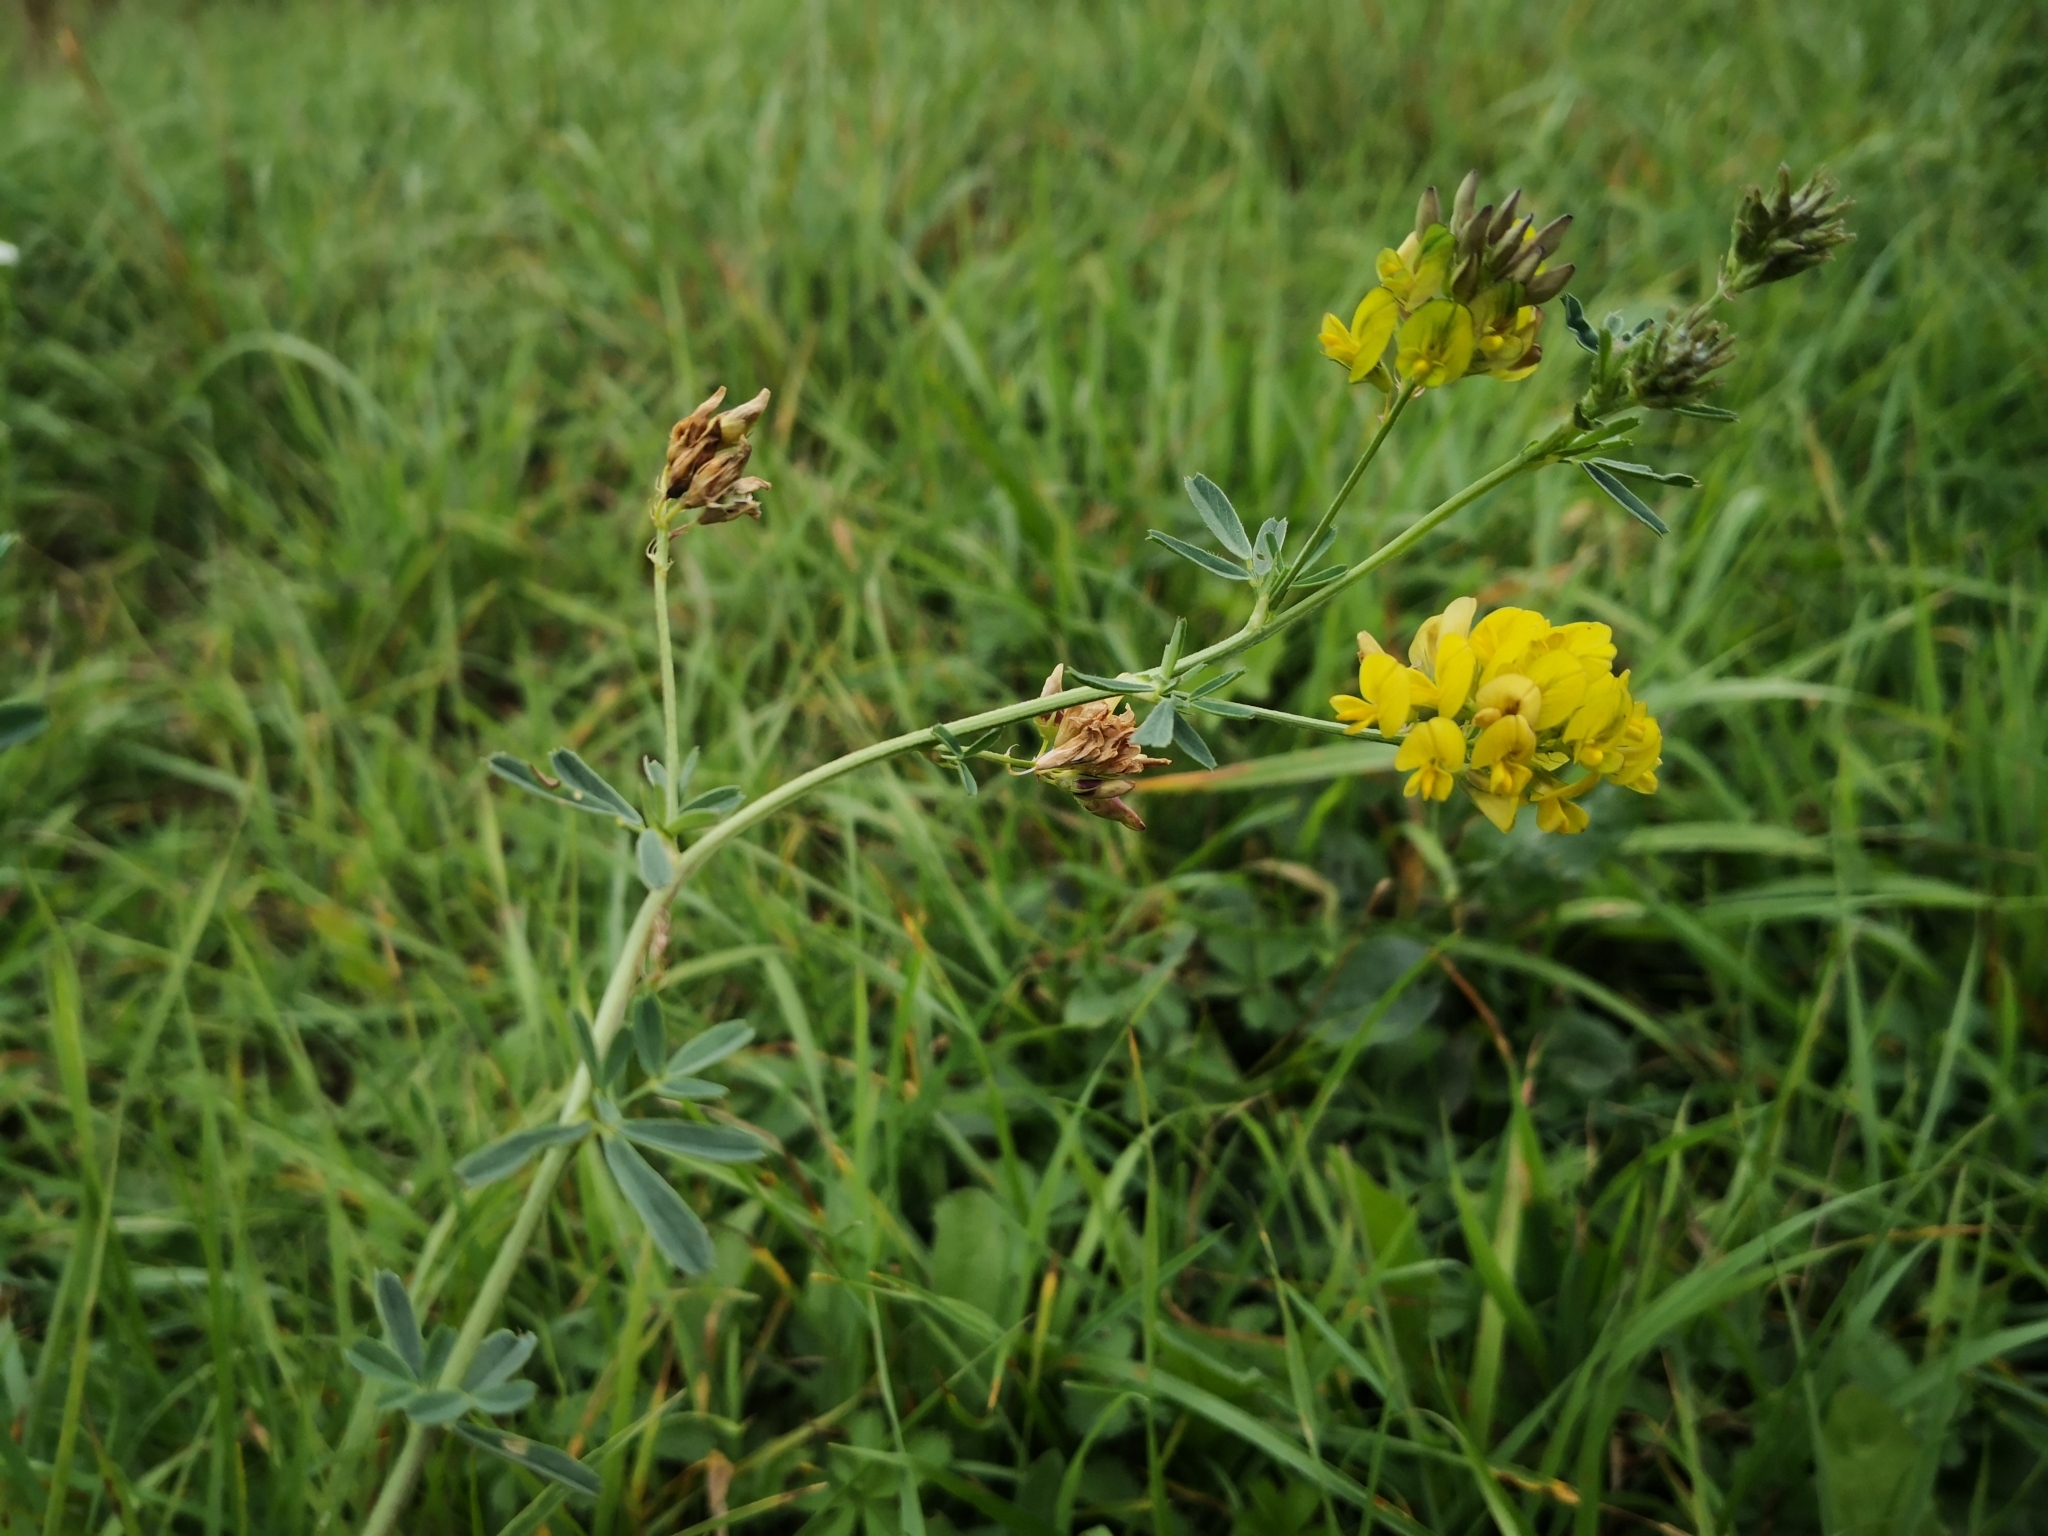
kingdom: Plantae
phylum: Tracheophyta
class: Magnoliopsida
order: Fabales
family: Fabaceae
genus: Medicago
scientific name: Medicago falcata
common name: Sickle medick
